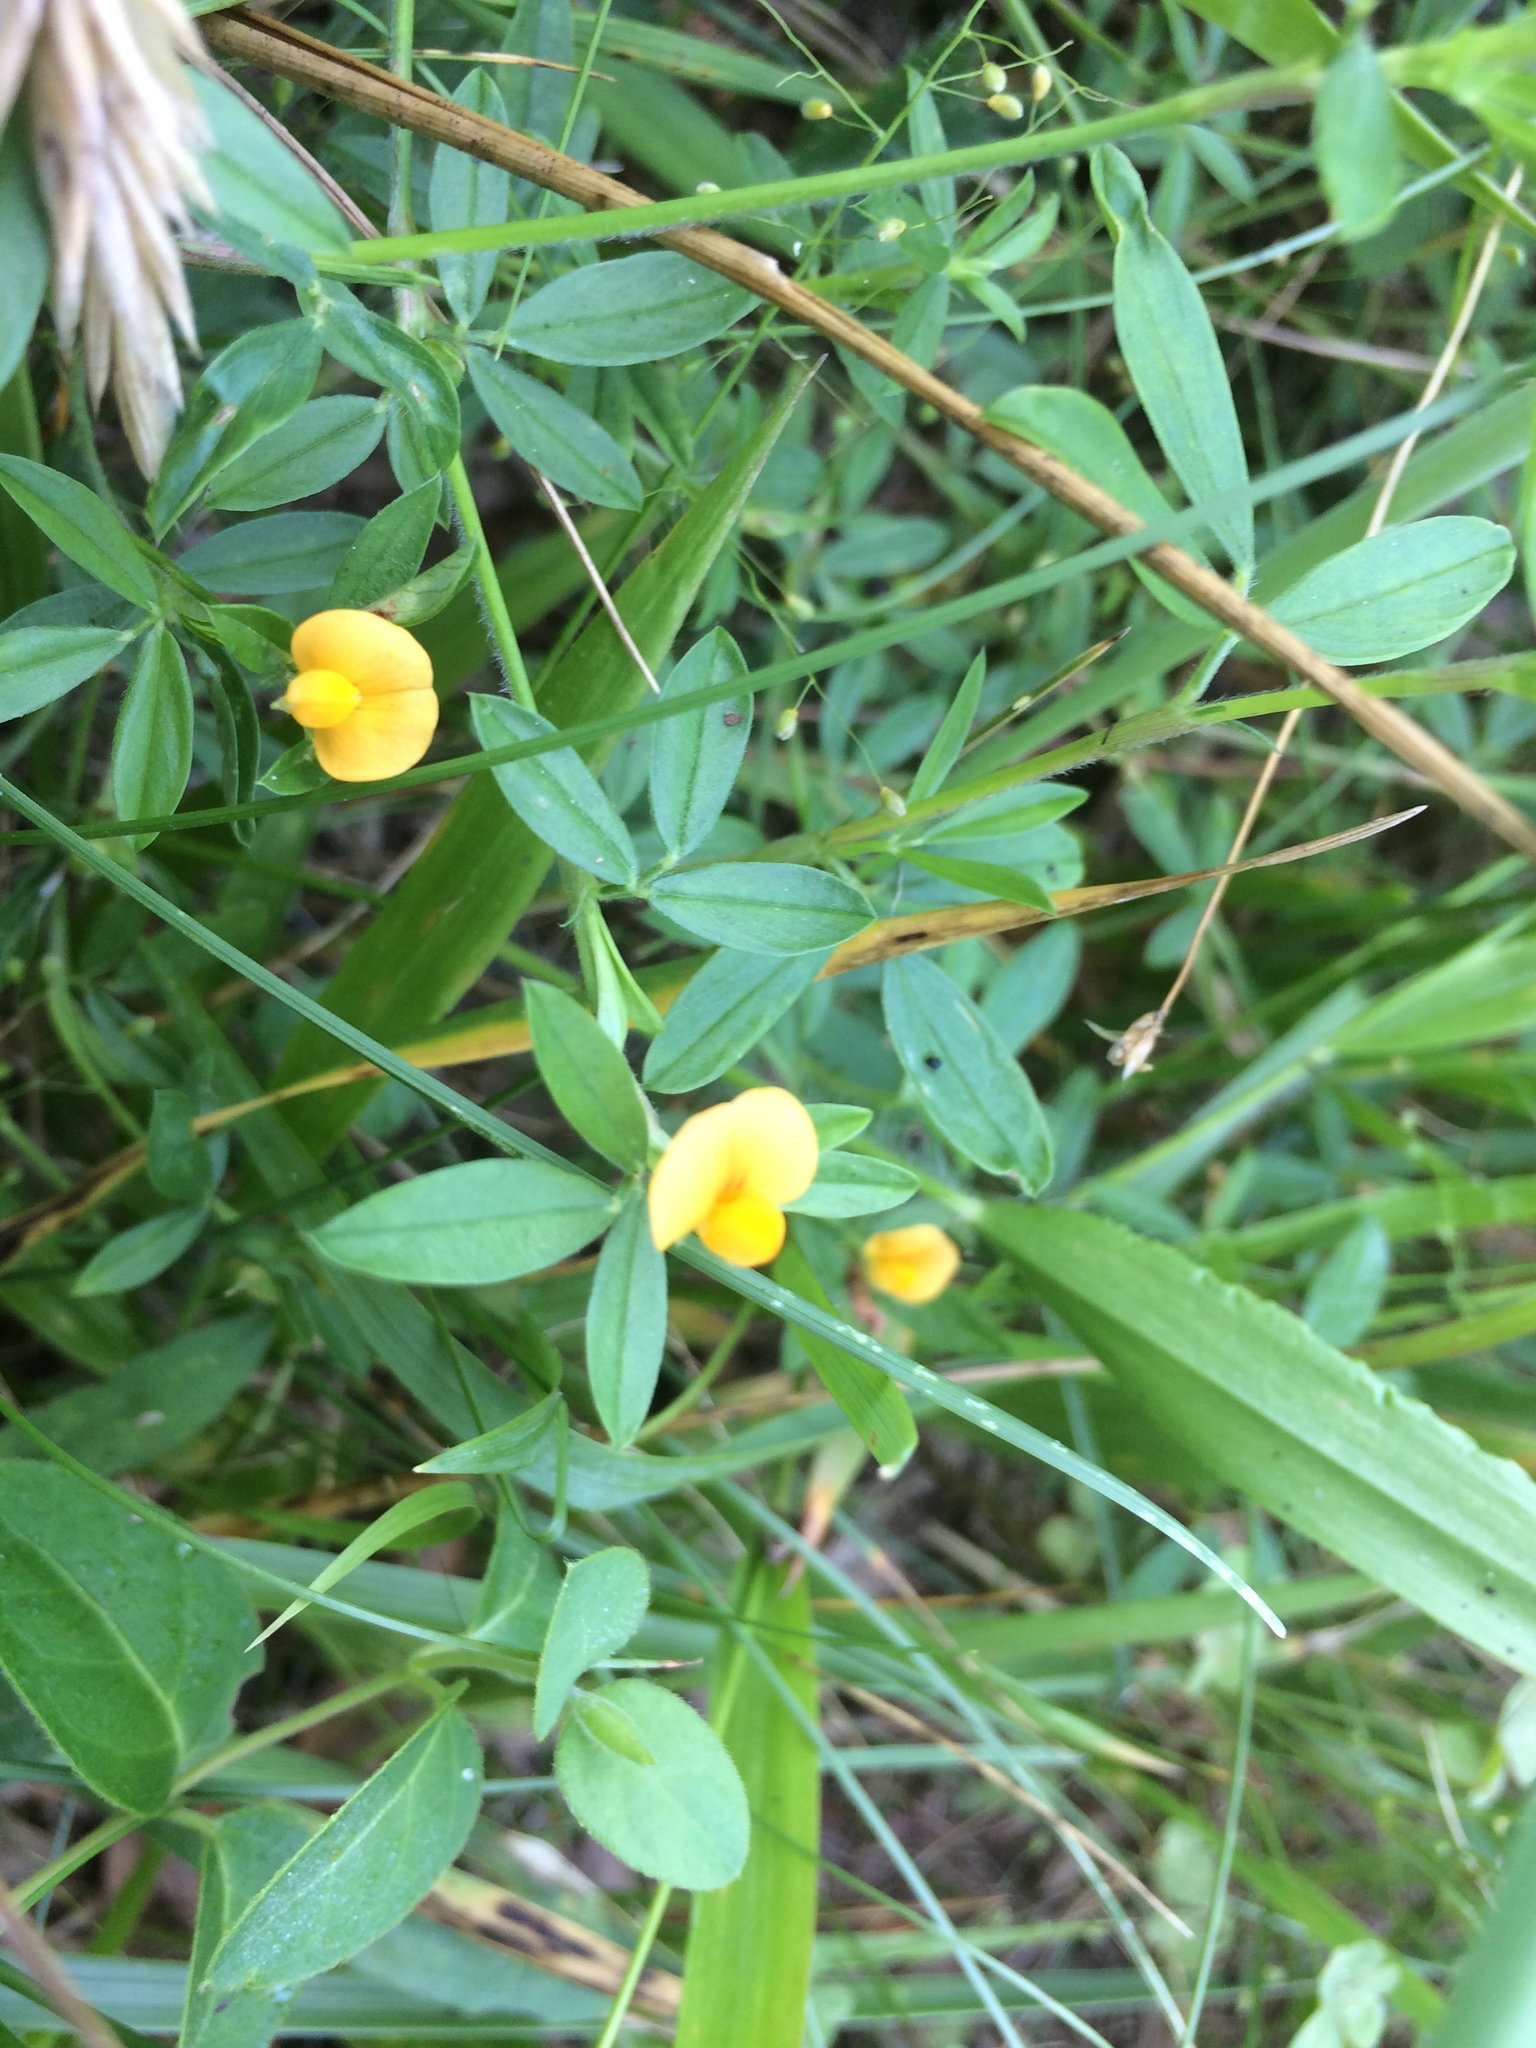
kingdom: Plantae
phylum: Tracheophyta
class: Magnoliopsida
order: Fabales
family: Fabaceae
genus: Stylosanthes
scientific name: Stylosanthes biflora
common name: Two-flower pencil-flower
